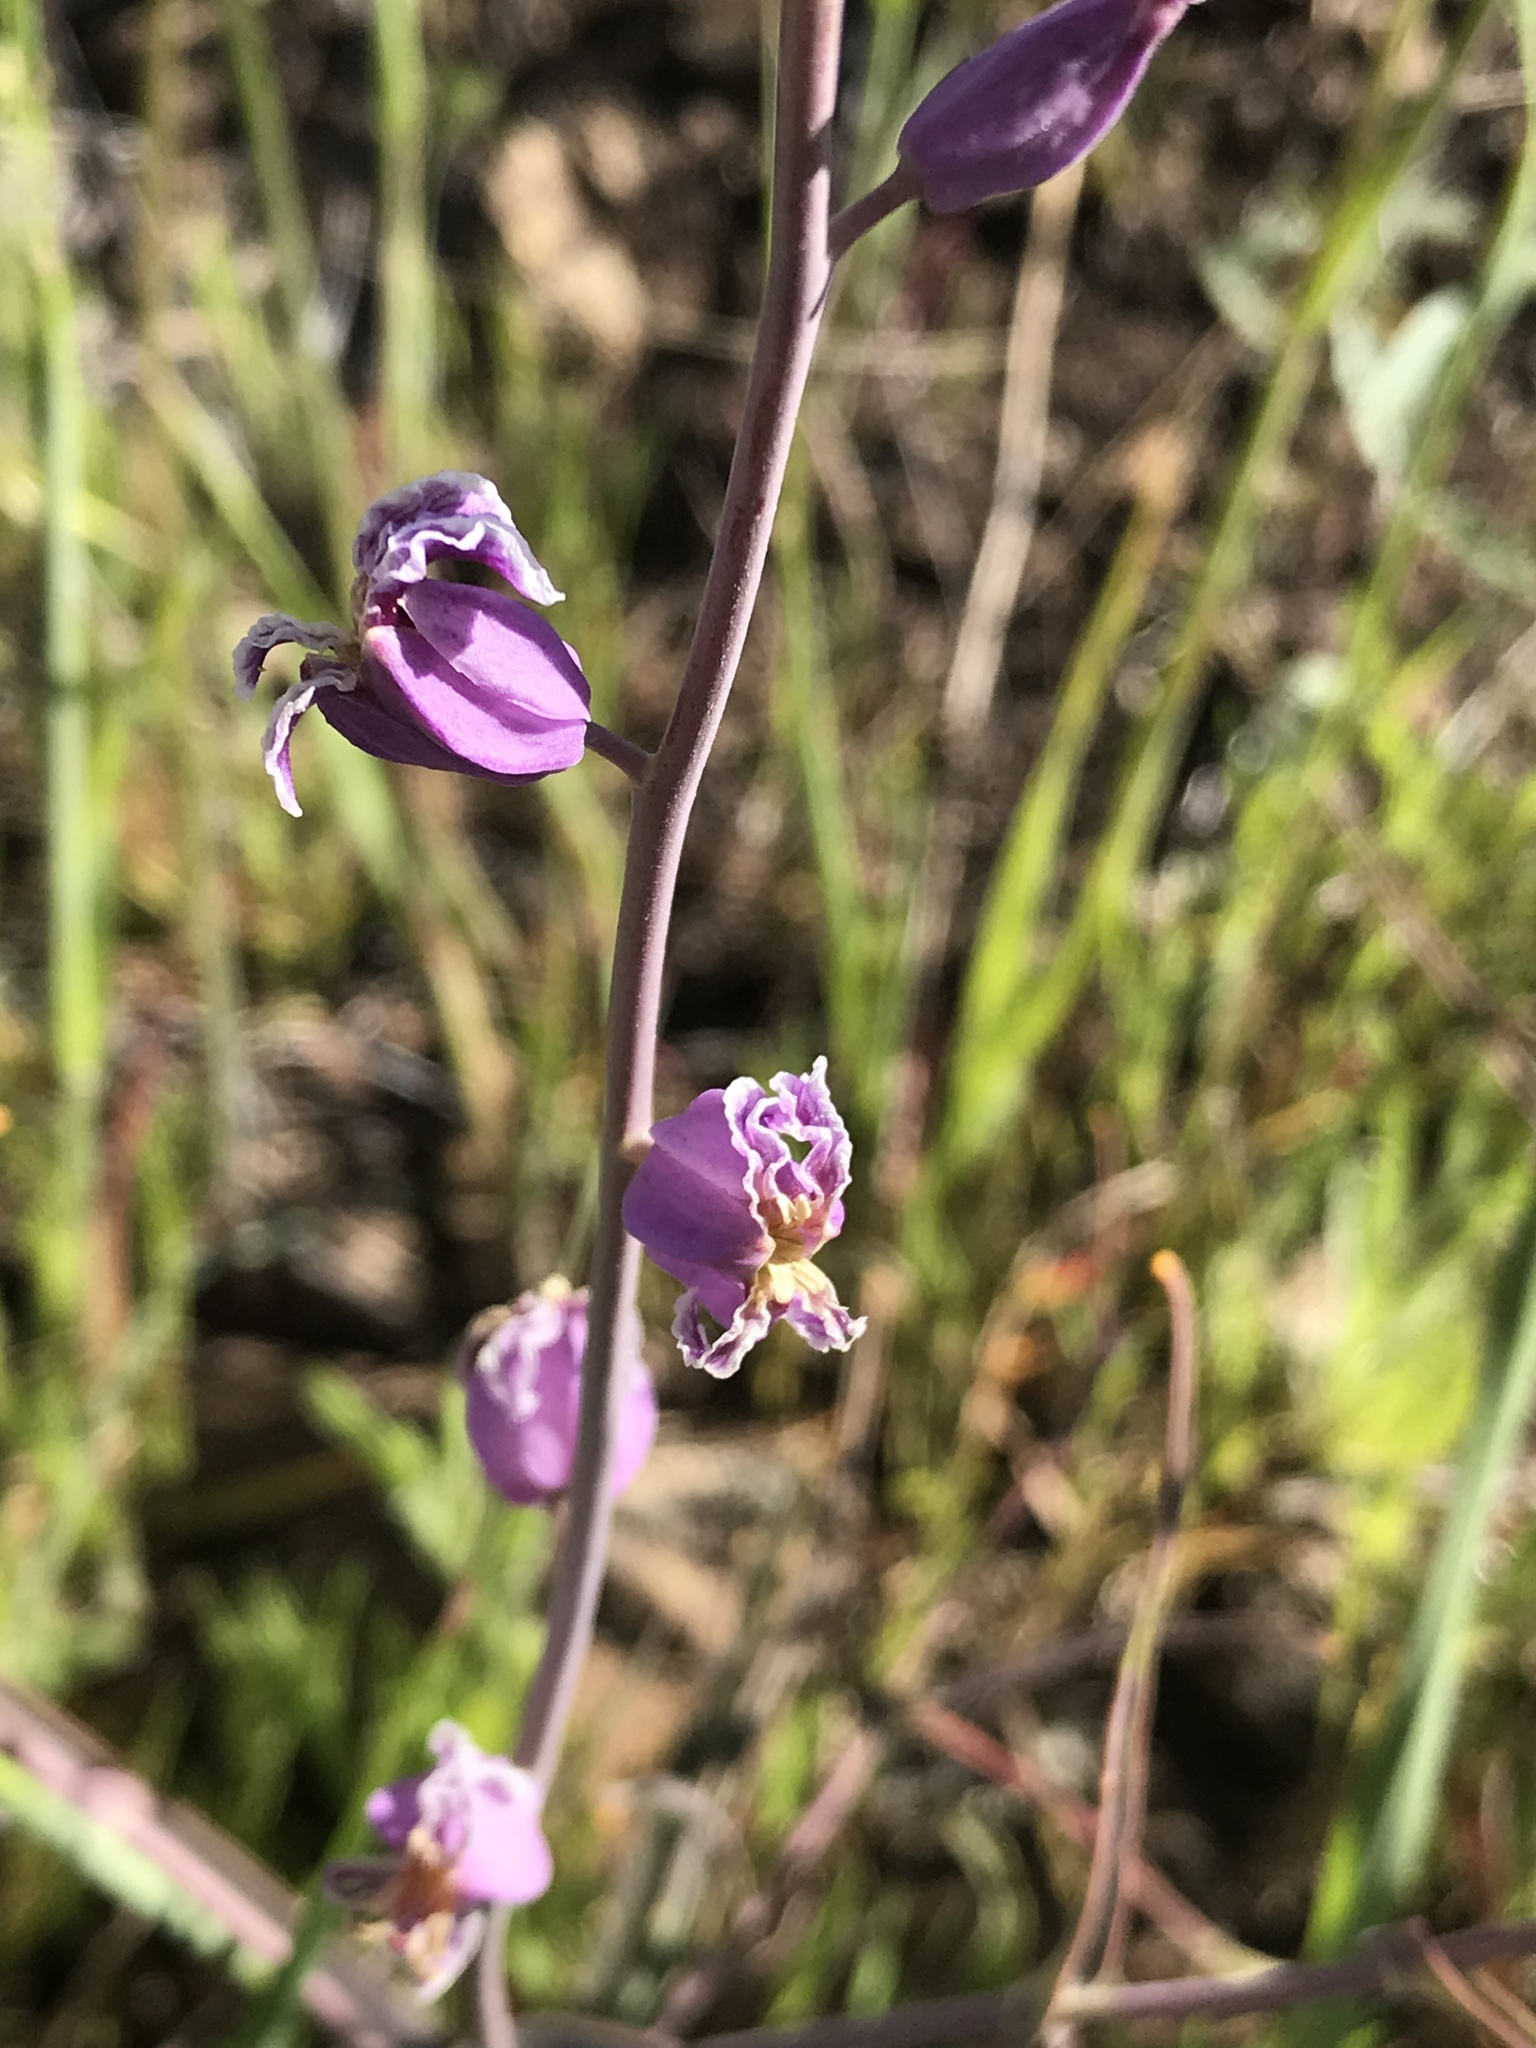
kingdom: Plantae
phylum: Tracheophyta
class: Magnoliopsida
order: Brassicales
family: Brassicaceae
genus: Streptanthus
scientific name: Streptanthus glandulosus
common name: Jewel-flower
